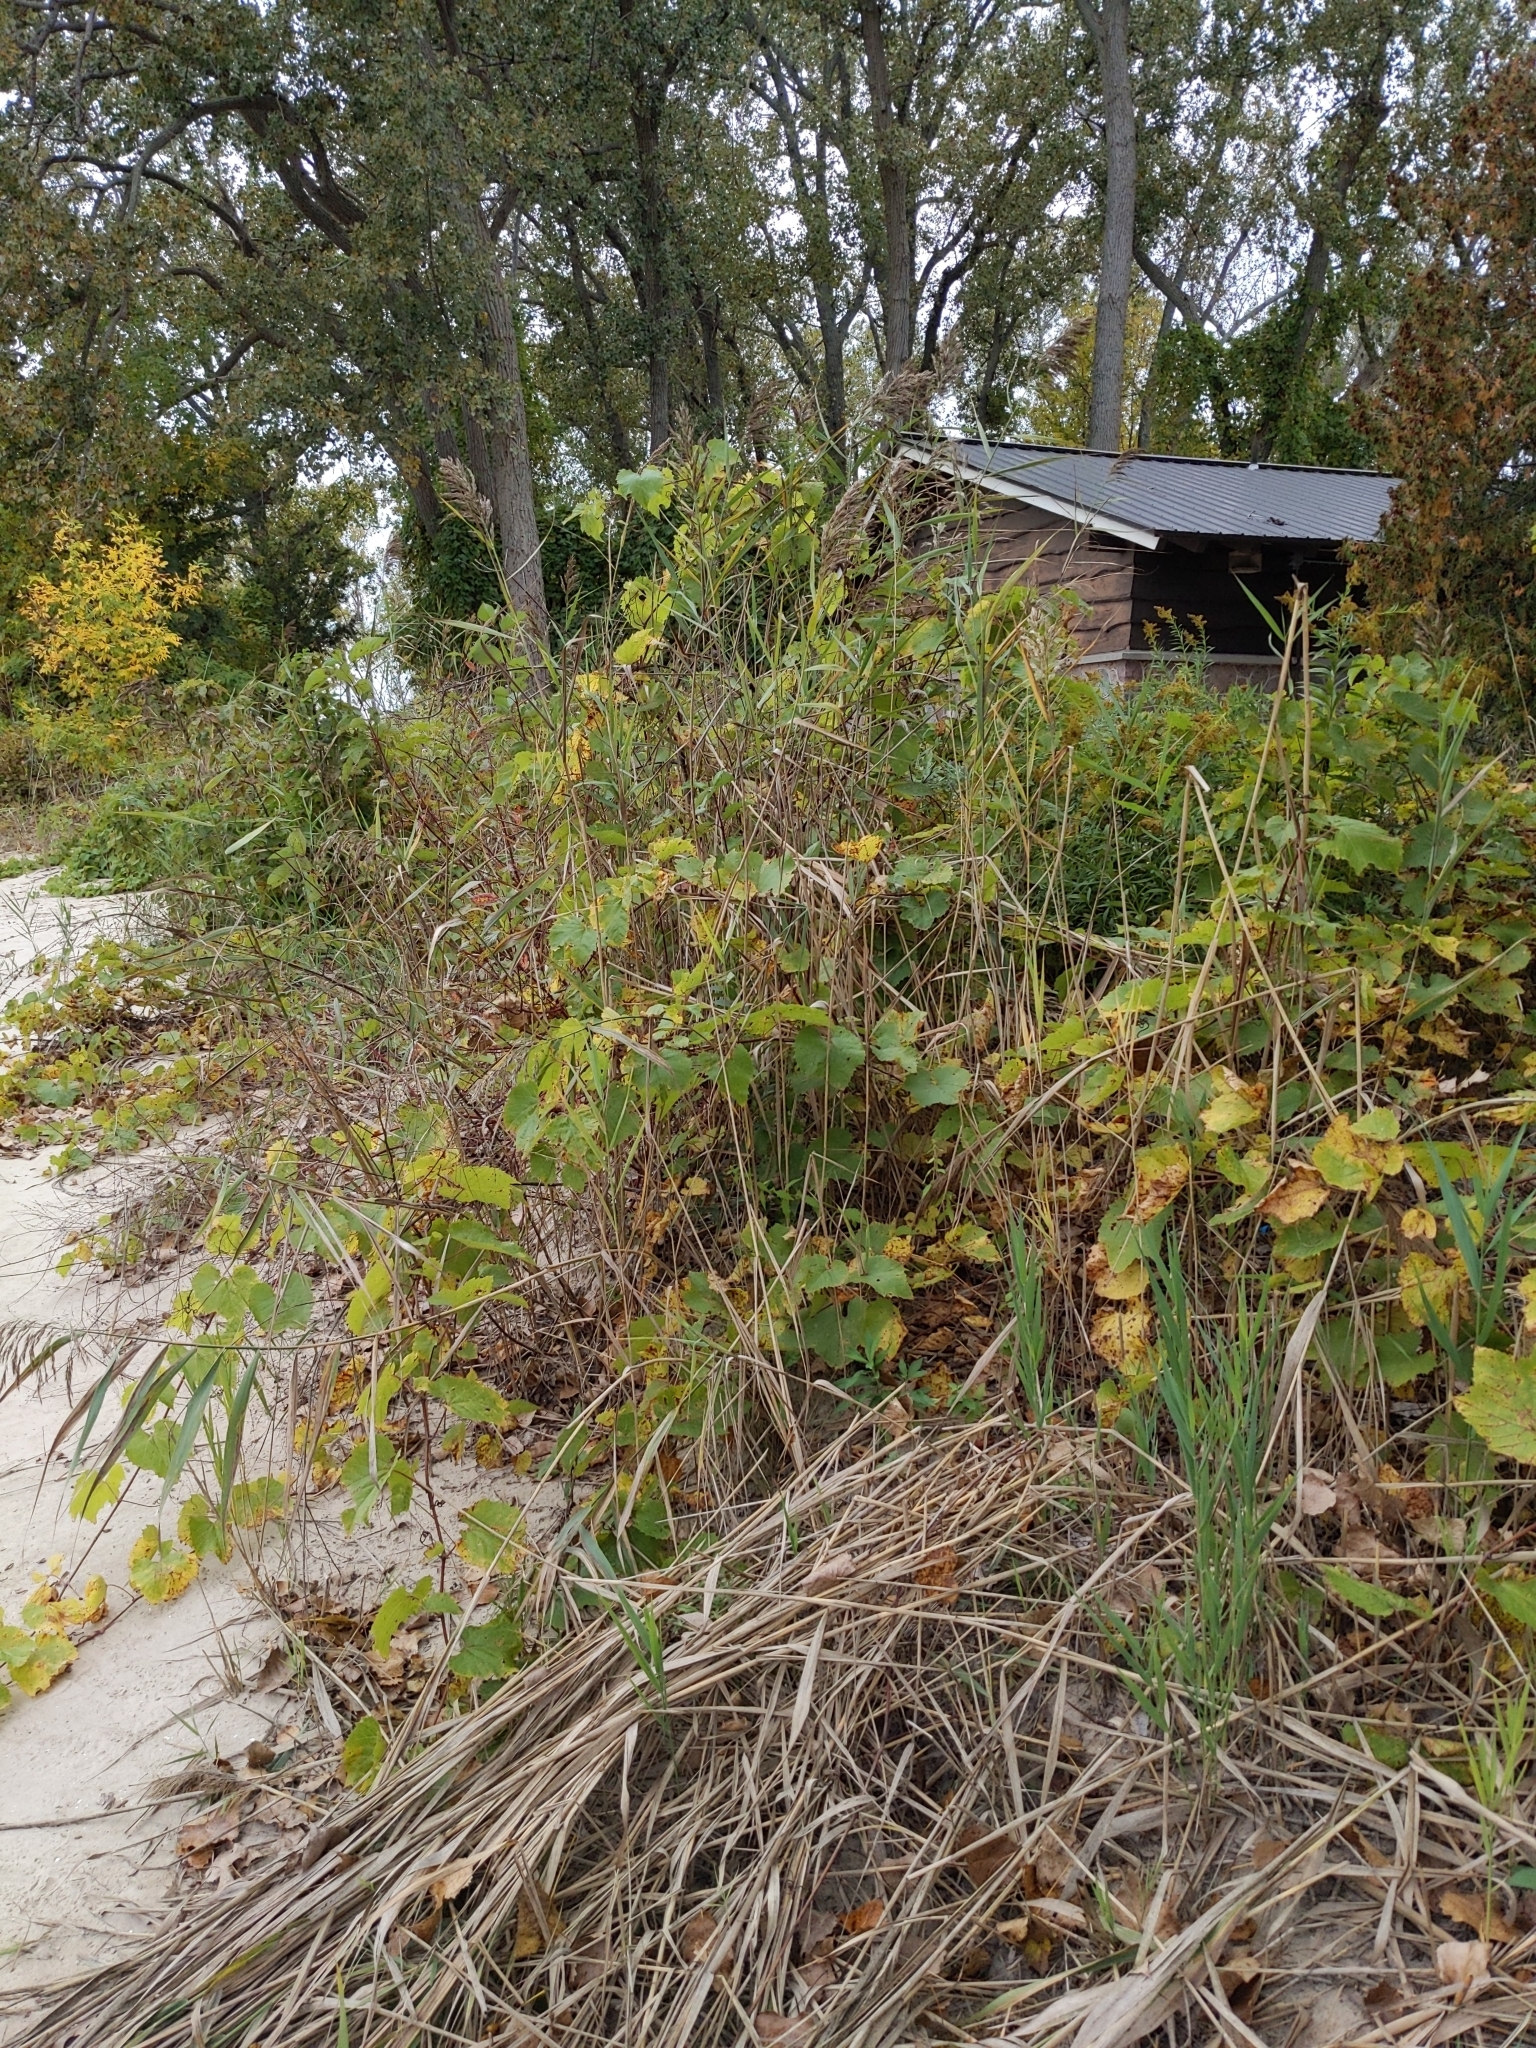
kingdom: Plantae
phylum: Tracheophyta
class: Liliopsida
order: Poales
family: Poaceae
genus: Phragmites
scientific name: Phragmites australis
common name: Common reed
